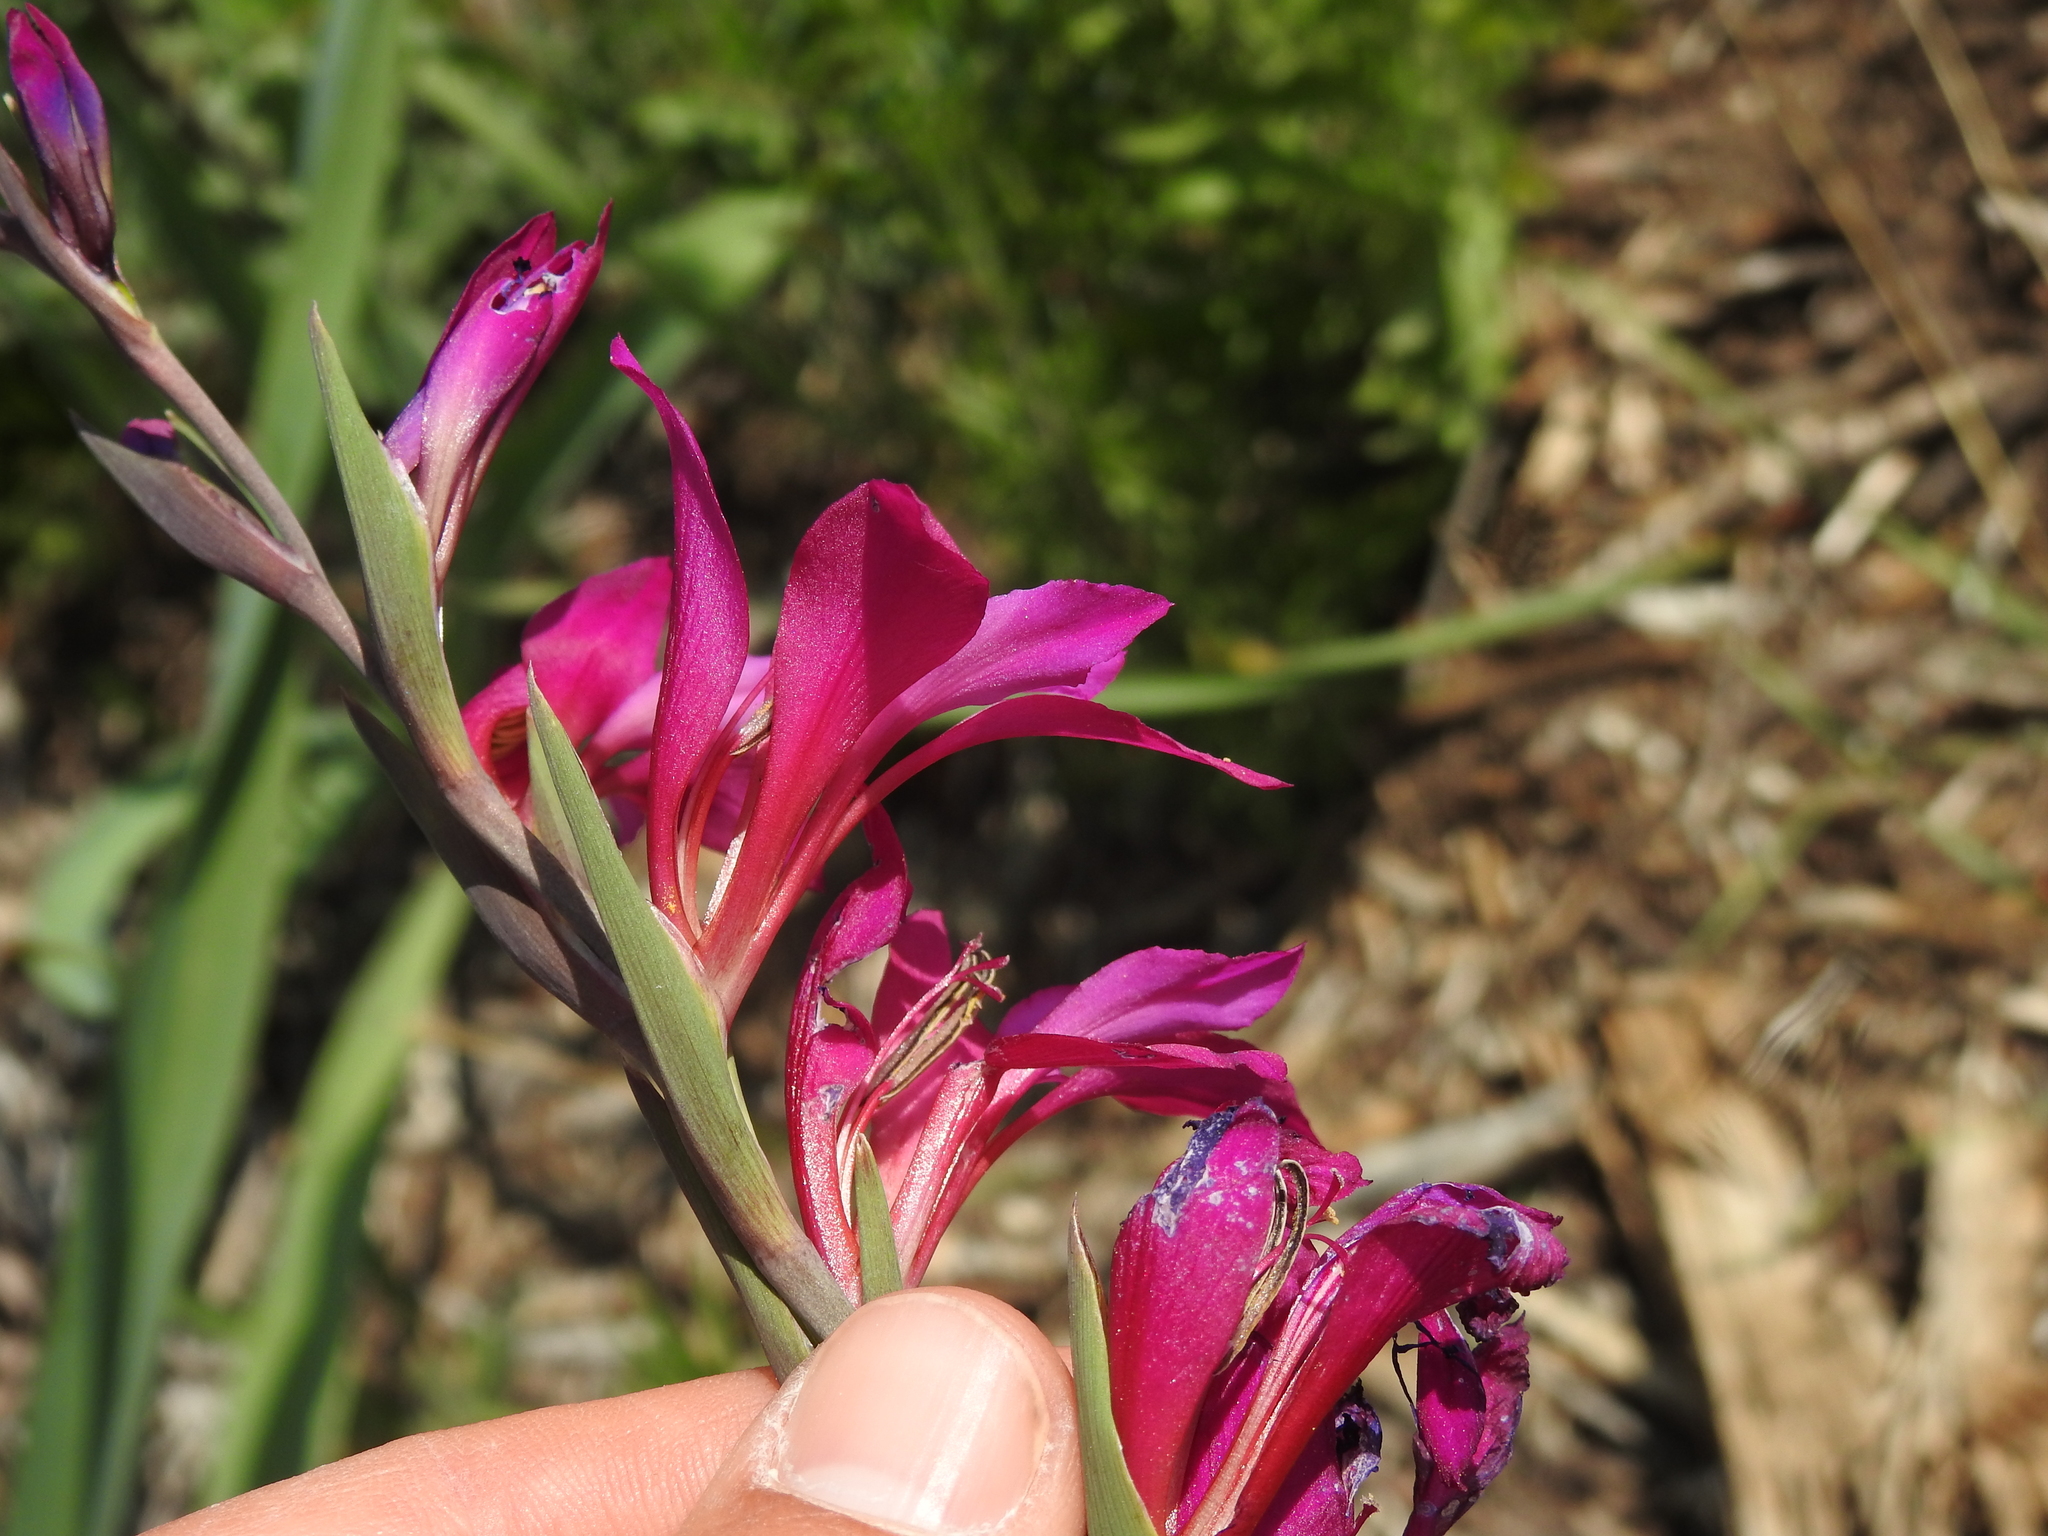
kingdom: Plantae
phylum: Tracheophyta
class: Liliopsida
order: Asparagales
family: Iridaceae
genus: Gladiolus
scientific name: Gladiolus dubius
